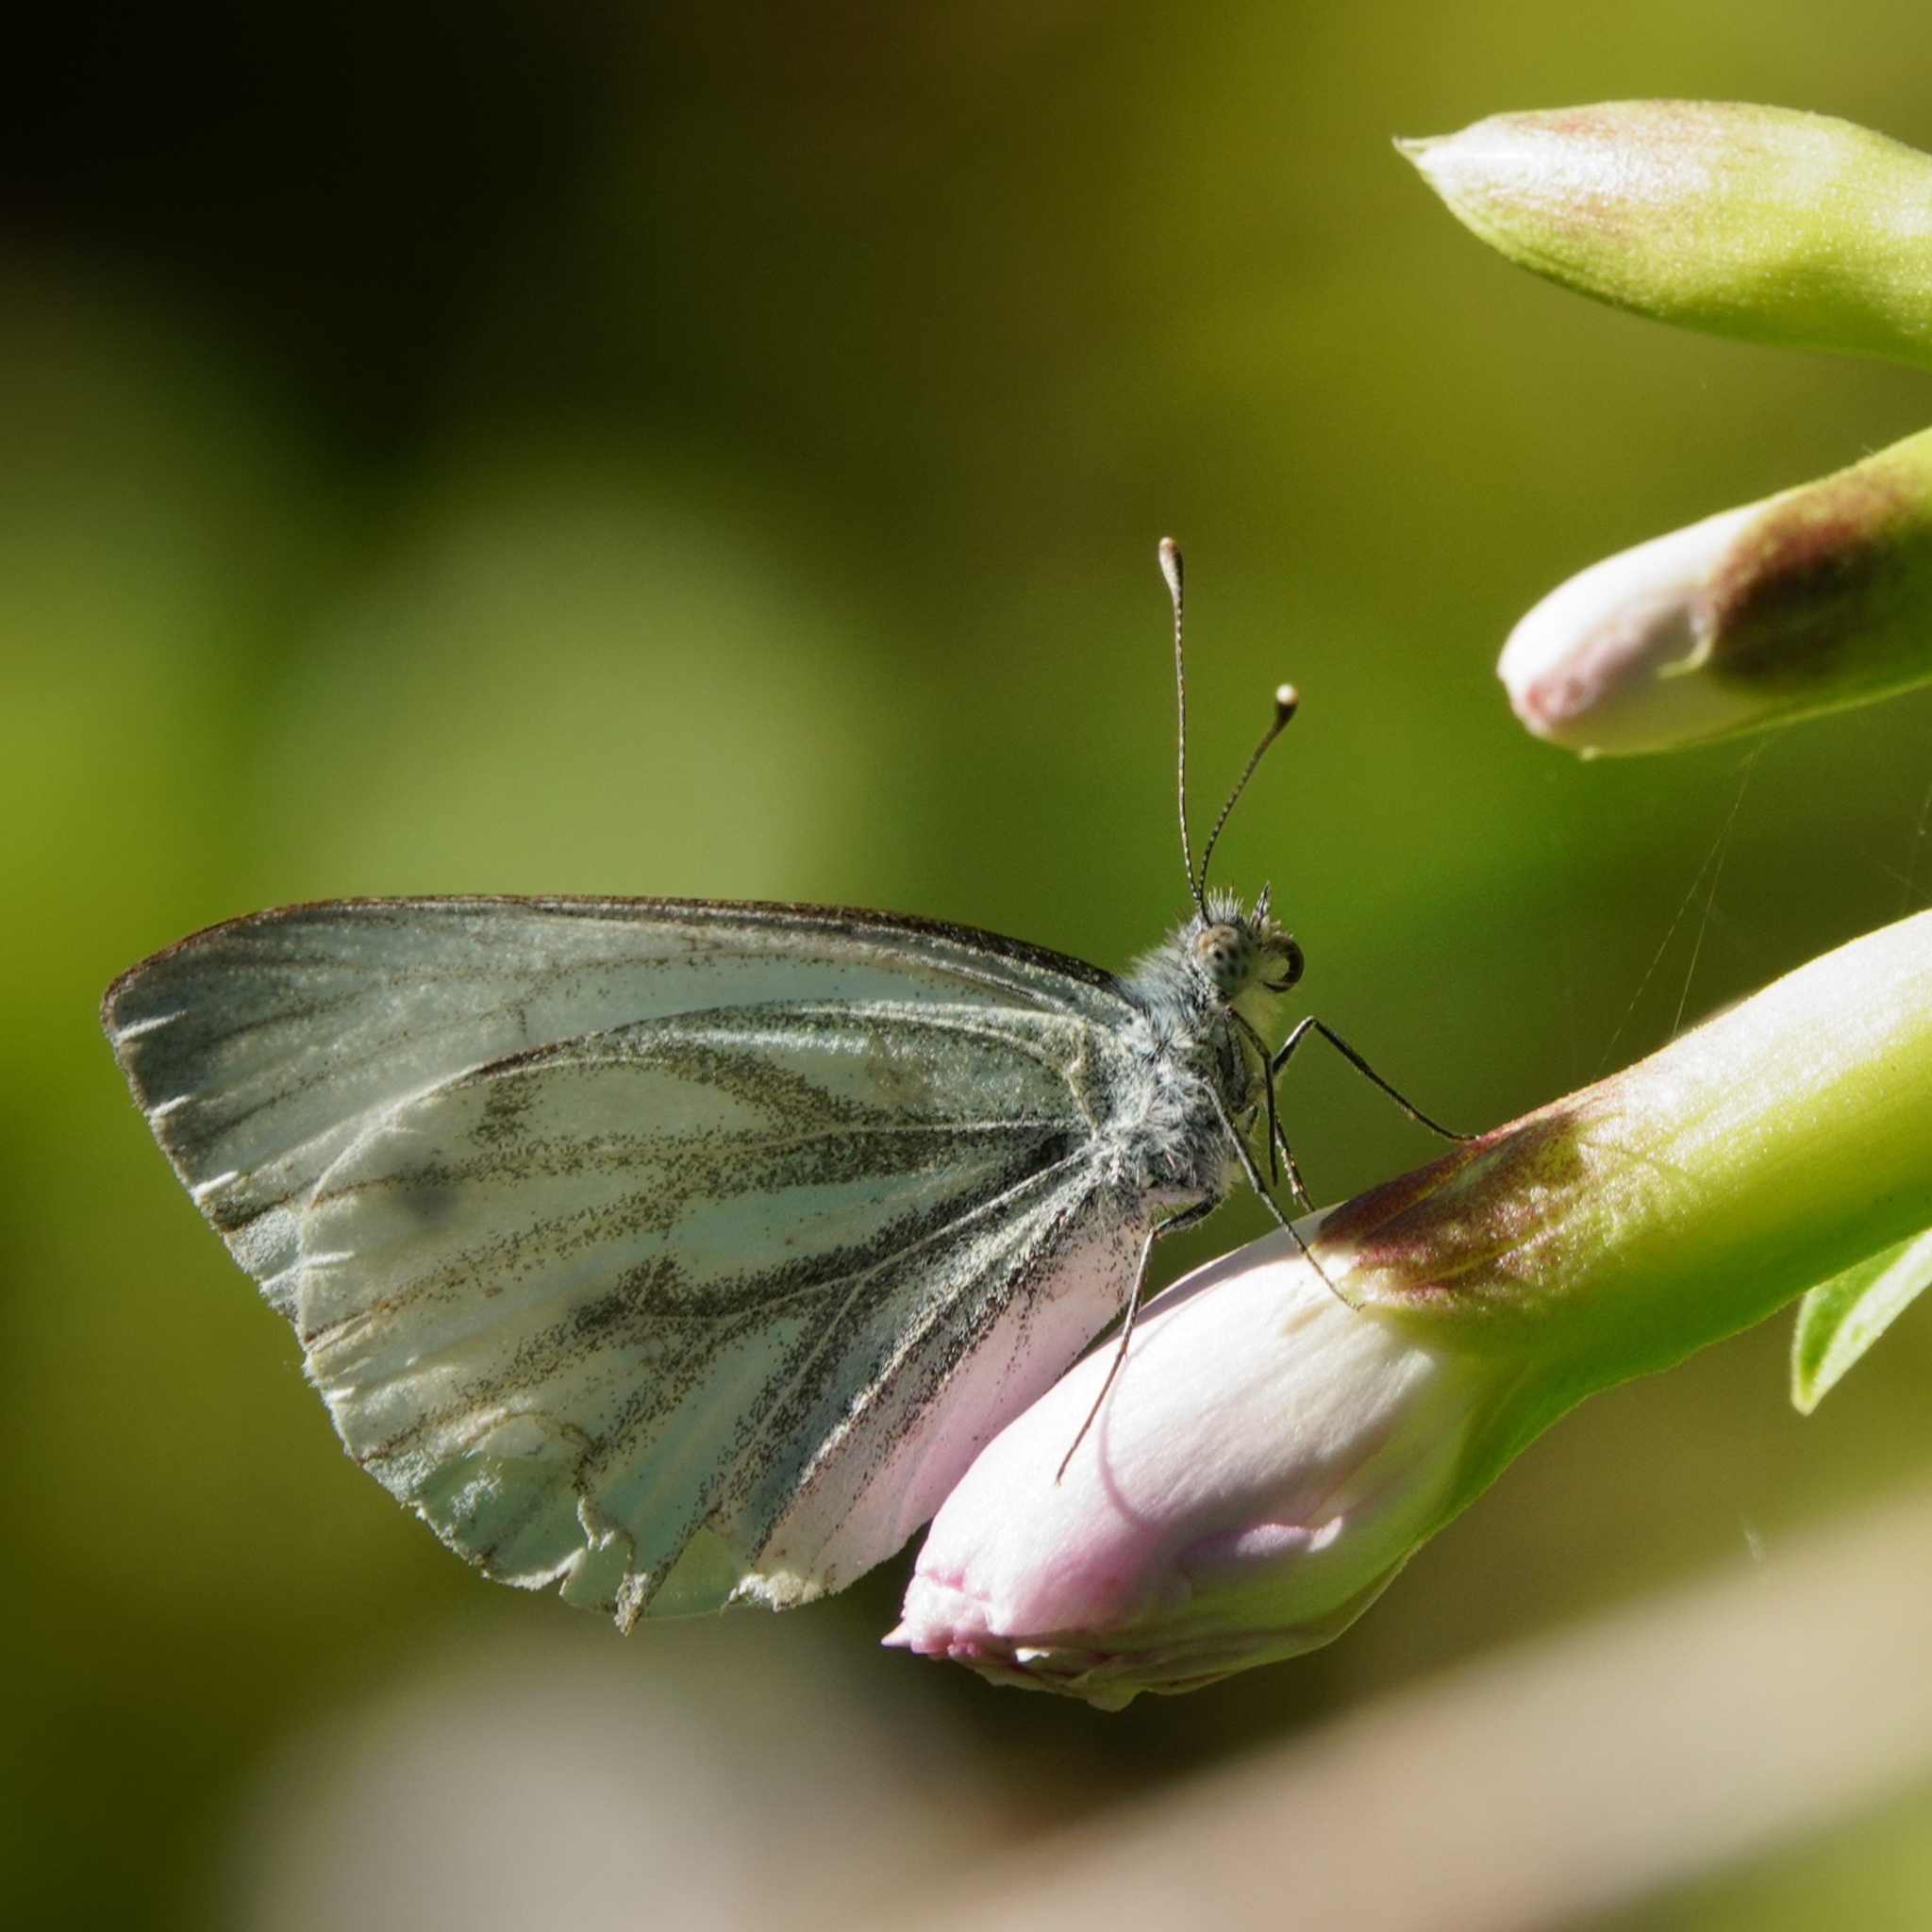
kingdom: Animalia
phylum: Arthropoda
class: Insecta
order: Lepidoptera
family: Pieridae
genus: Pieris
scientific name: Pieris napi
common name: Green-veined white
